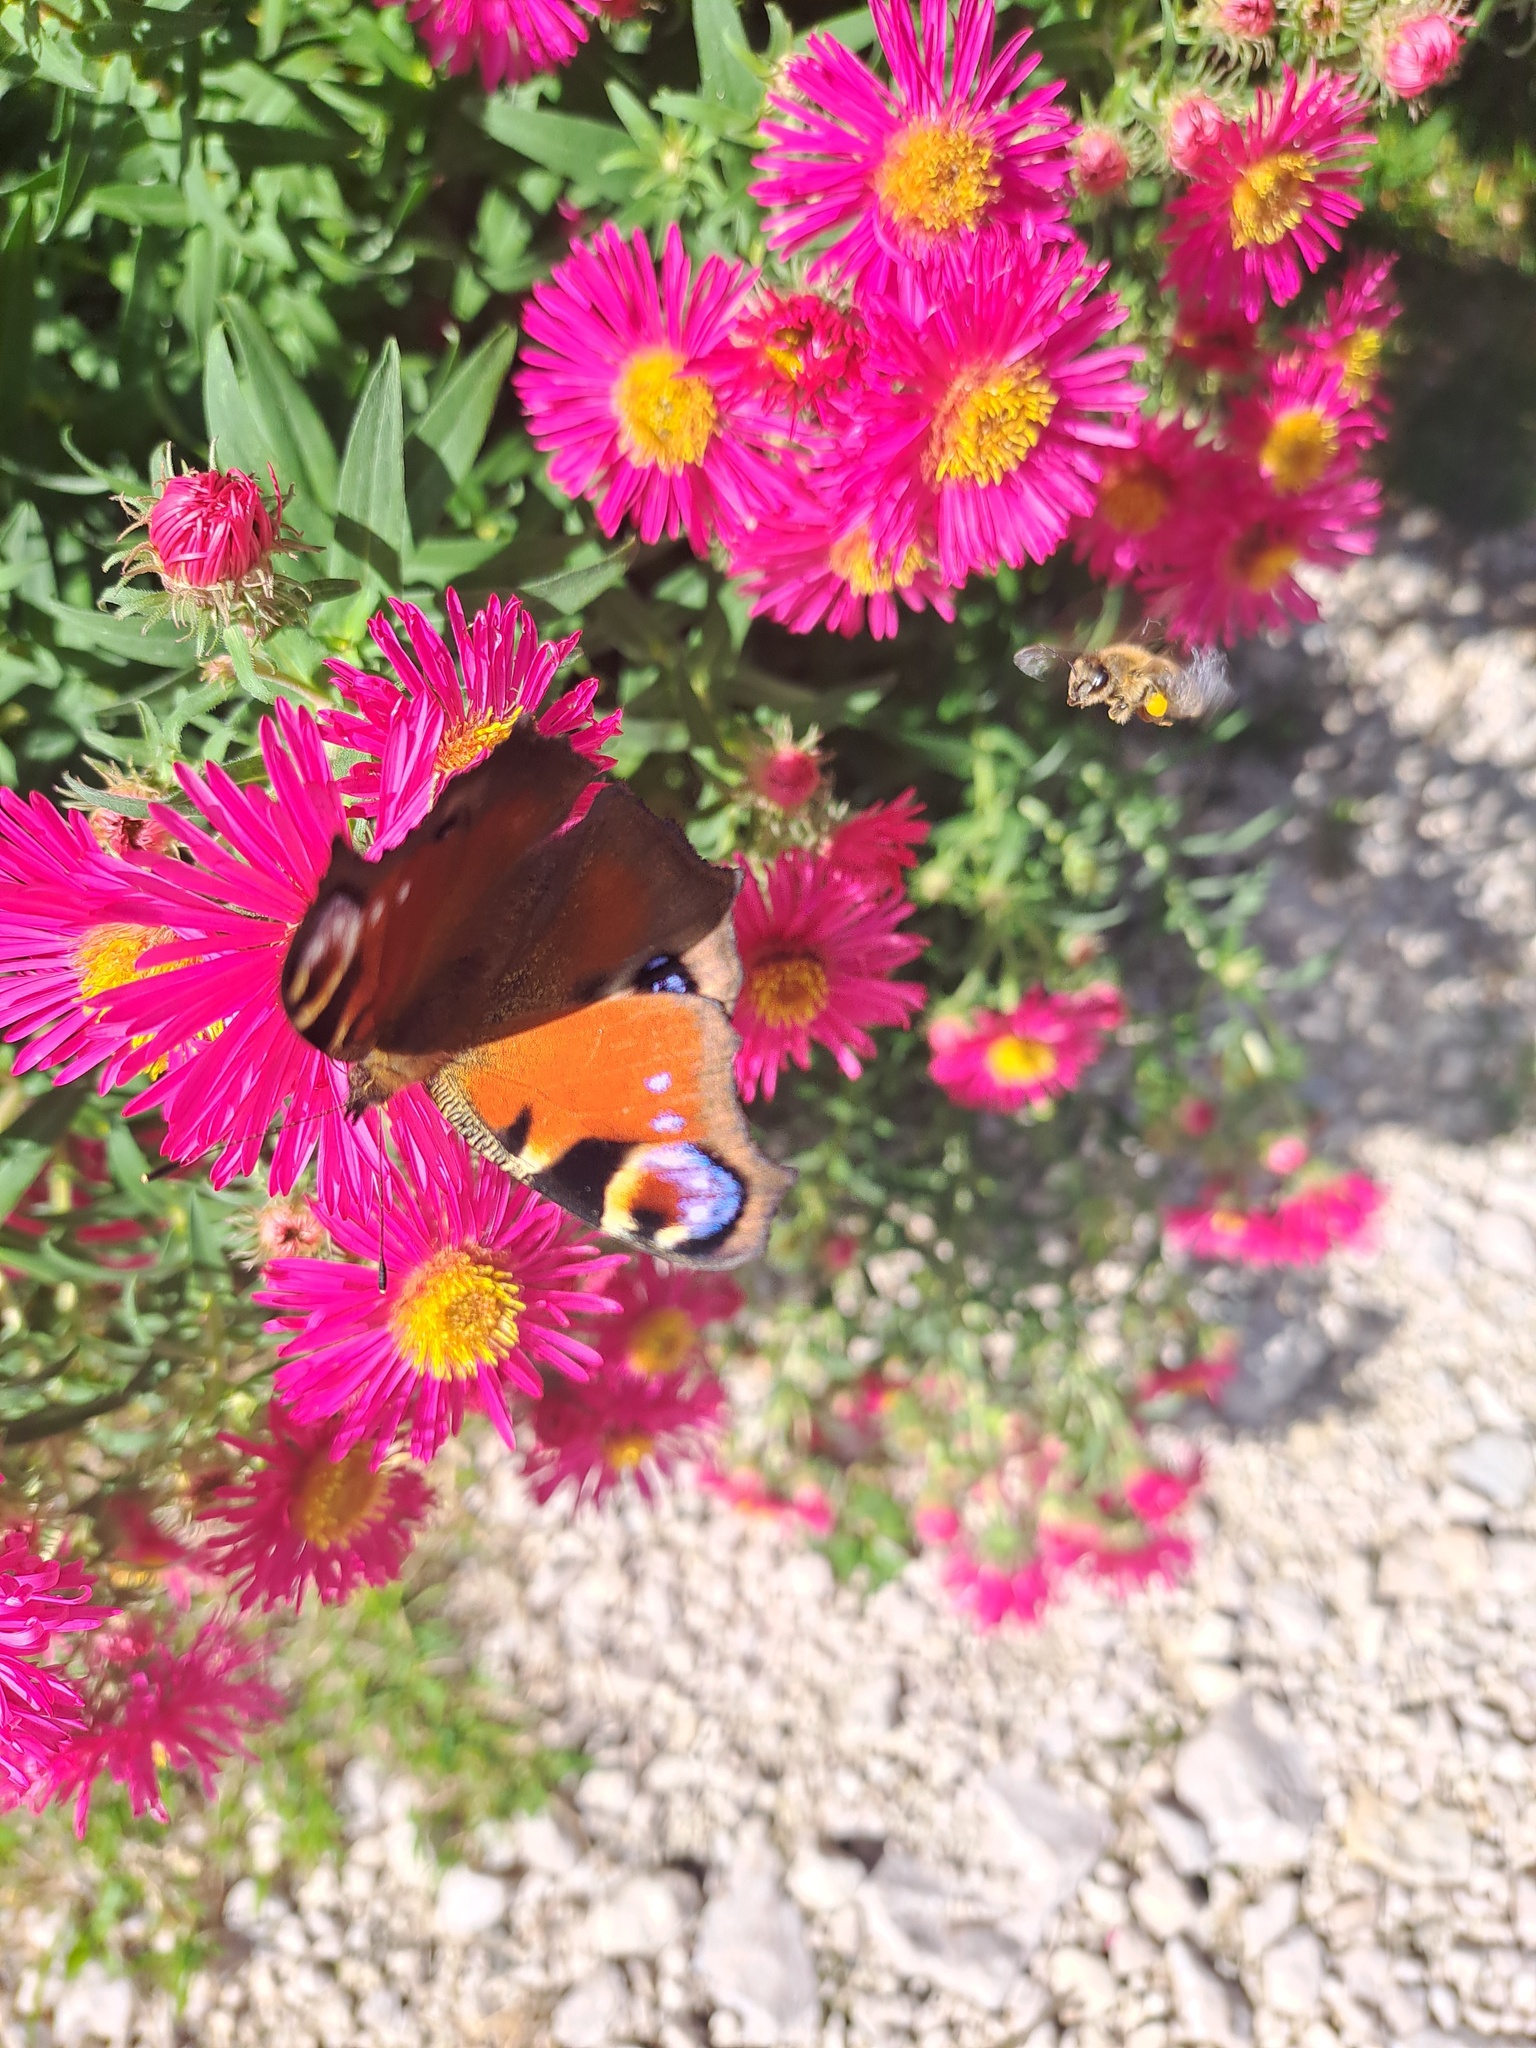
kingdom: Animalia
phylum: Arthropoda
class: Insecta
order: Lepidoptera
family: Nymphalidae
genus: Aglais
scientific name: Aglais io
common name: Peacock
